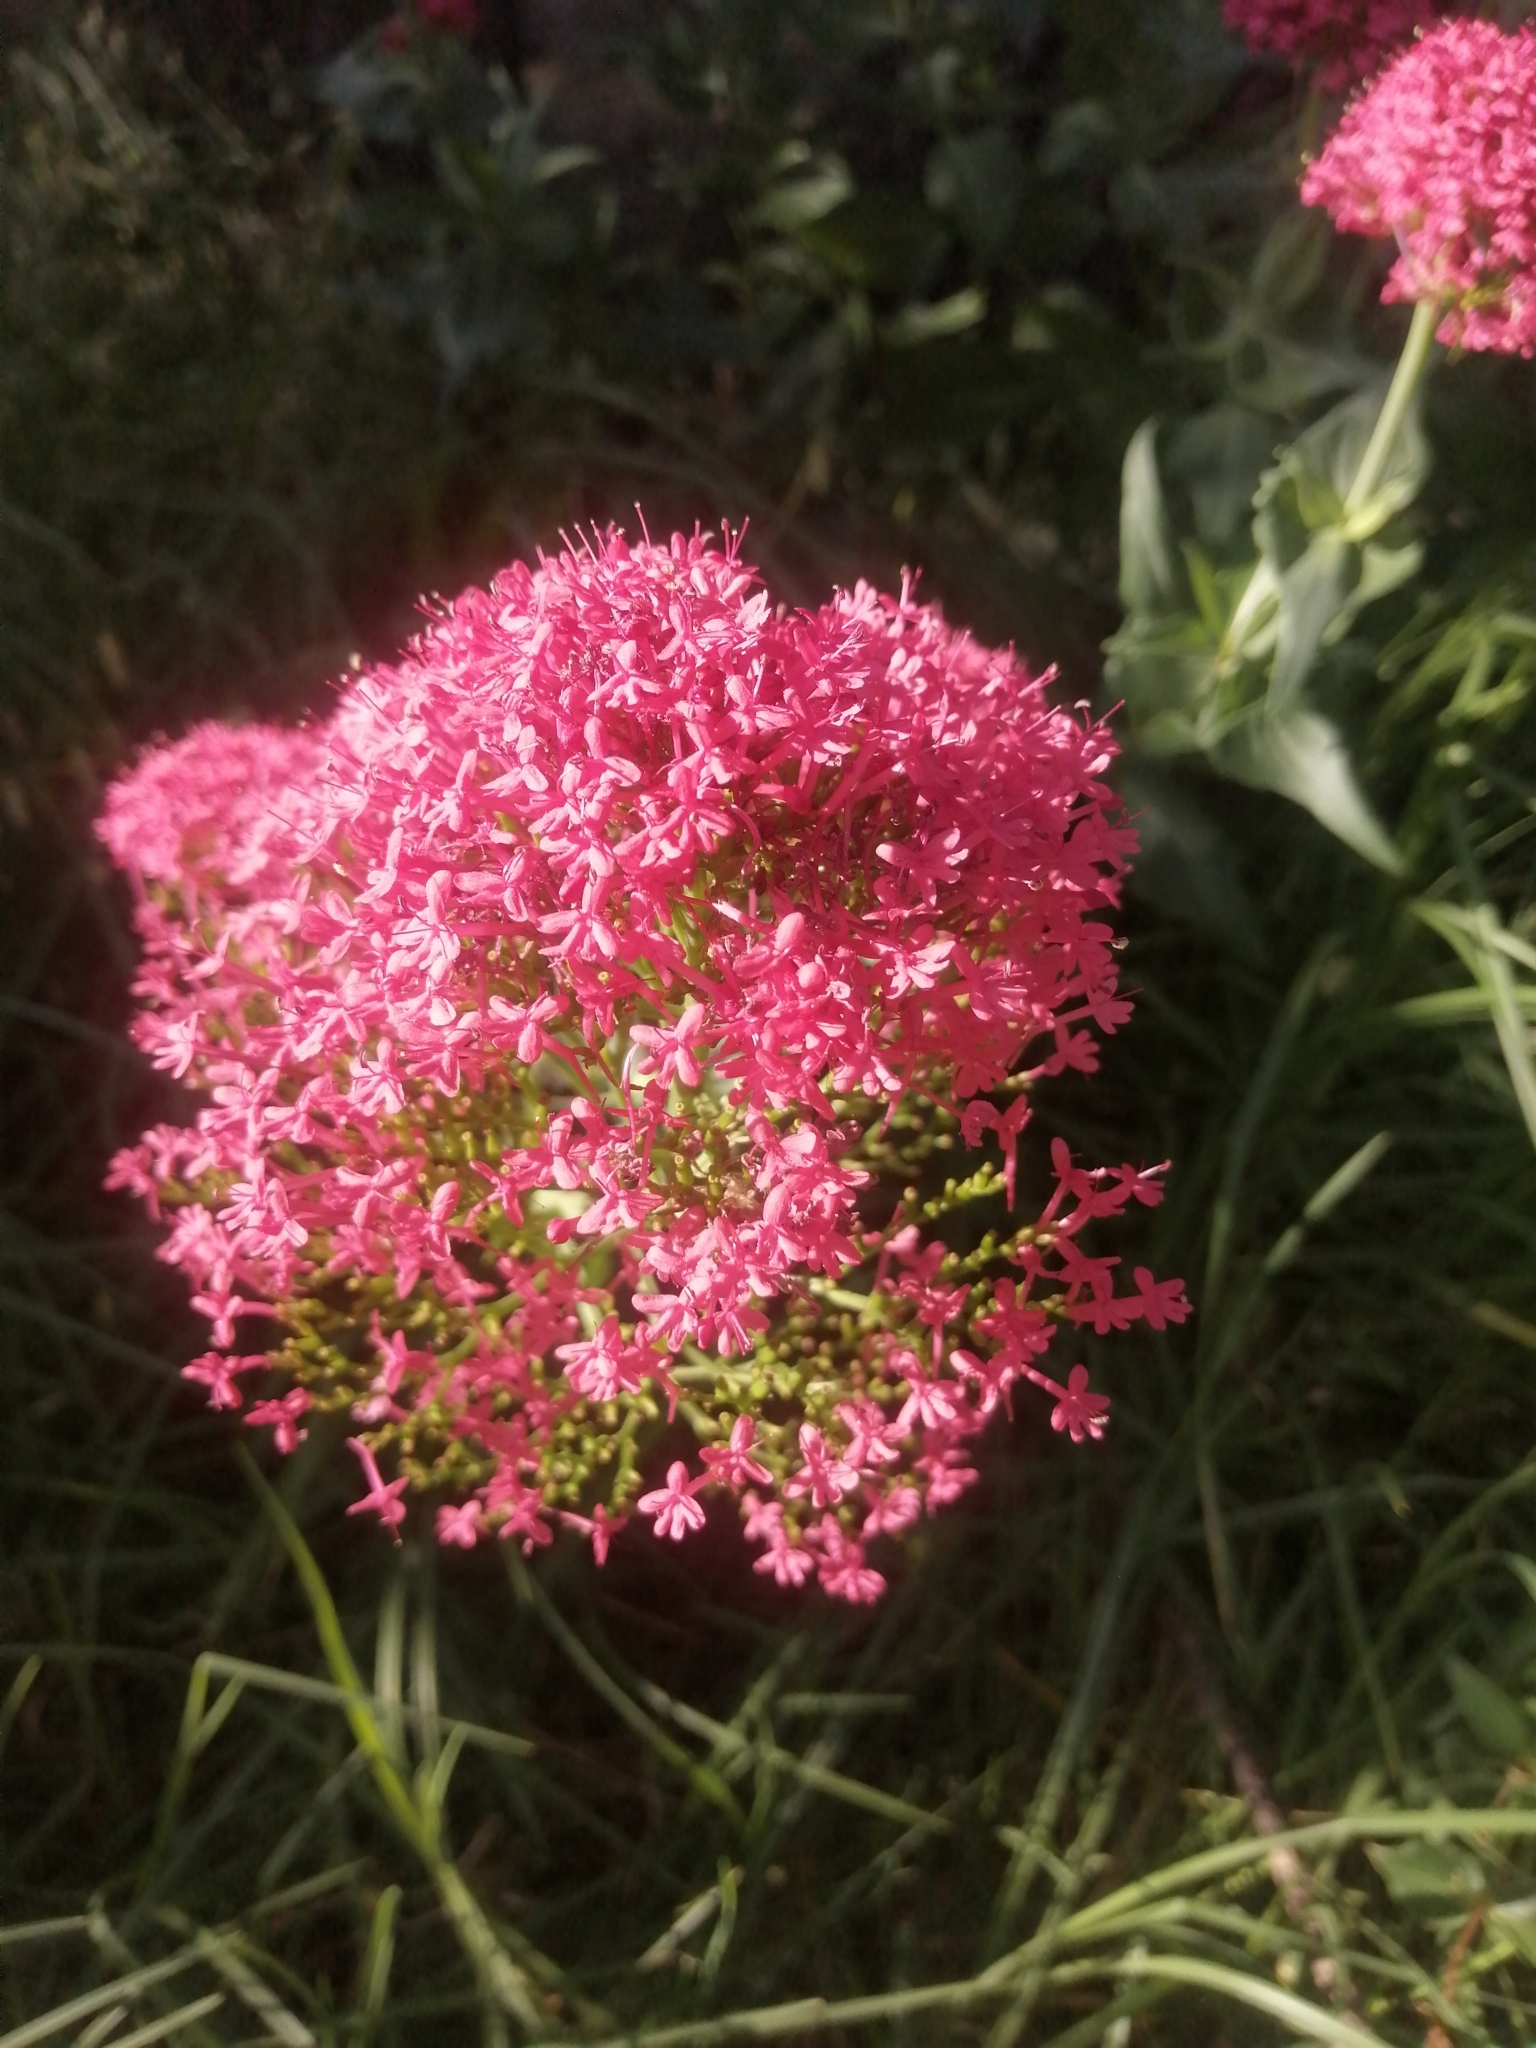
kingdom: Plantae
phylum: Tracheophyta
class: Magnoliopsida
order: Dipsacales
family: Caprifoliaceae
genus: Centranthus
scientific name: Centranthus ruber
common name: Red valerian
